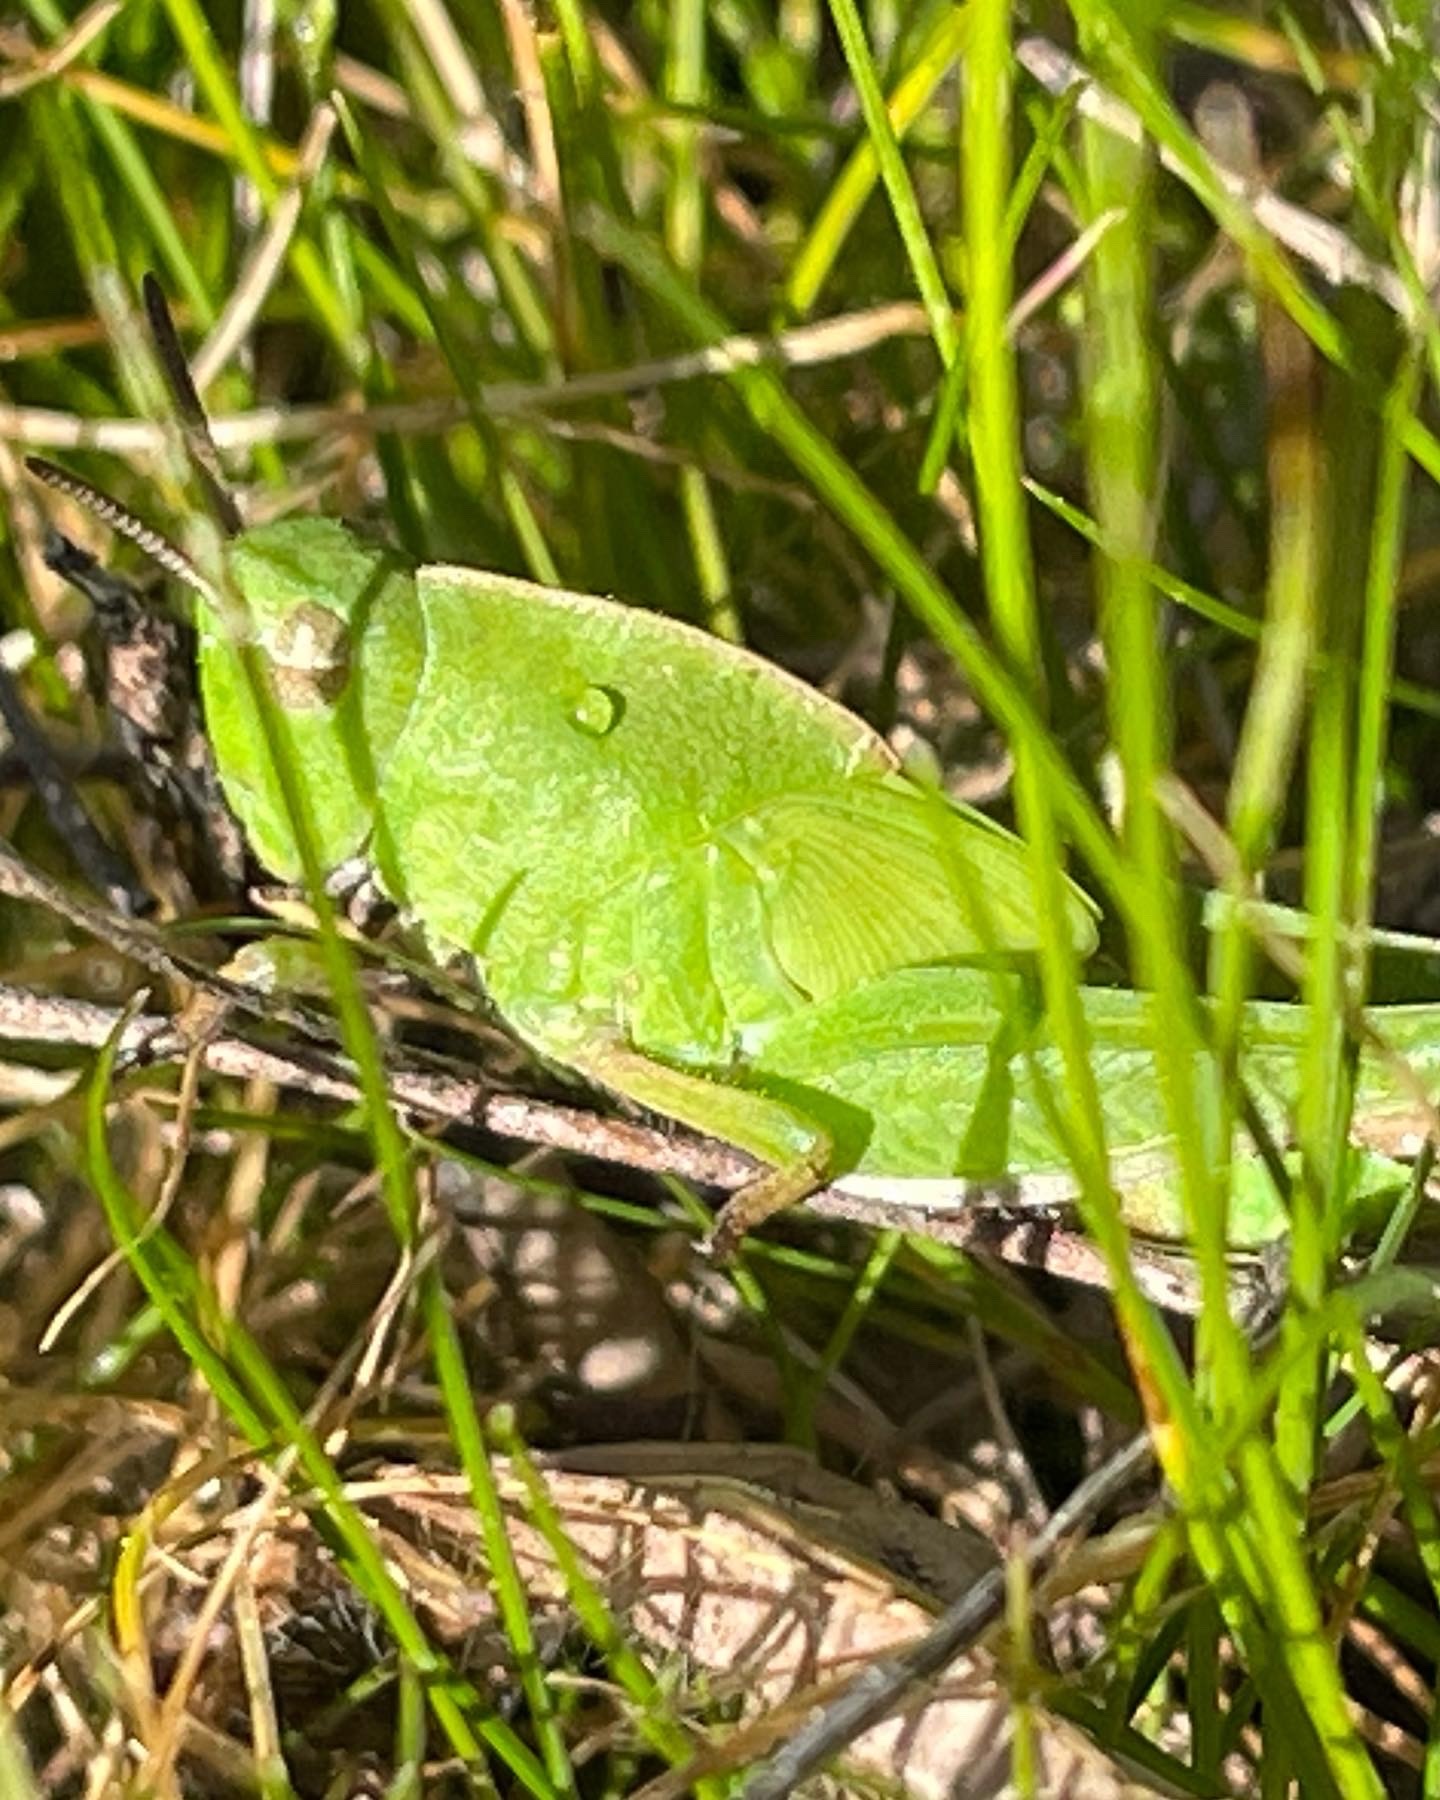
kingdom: Animalia
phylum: Arthropoda
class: Insecta
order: Orthoptera
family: Acrididae
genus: Chortophaga
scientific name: Chortophaga mendocino
